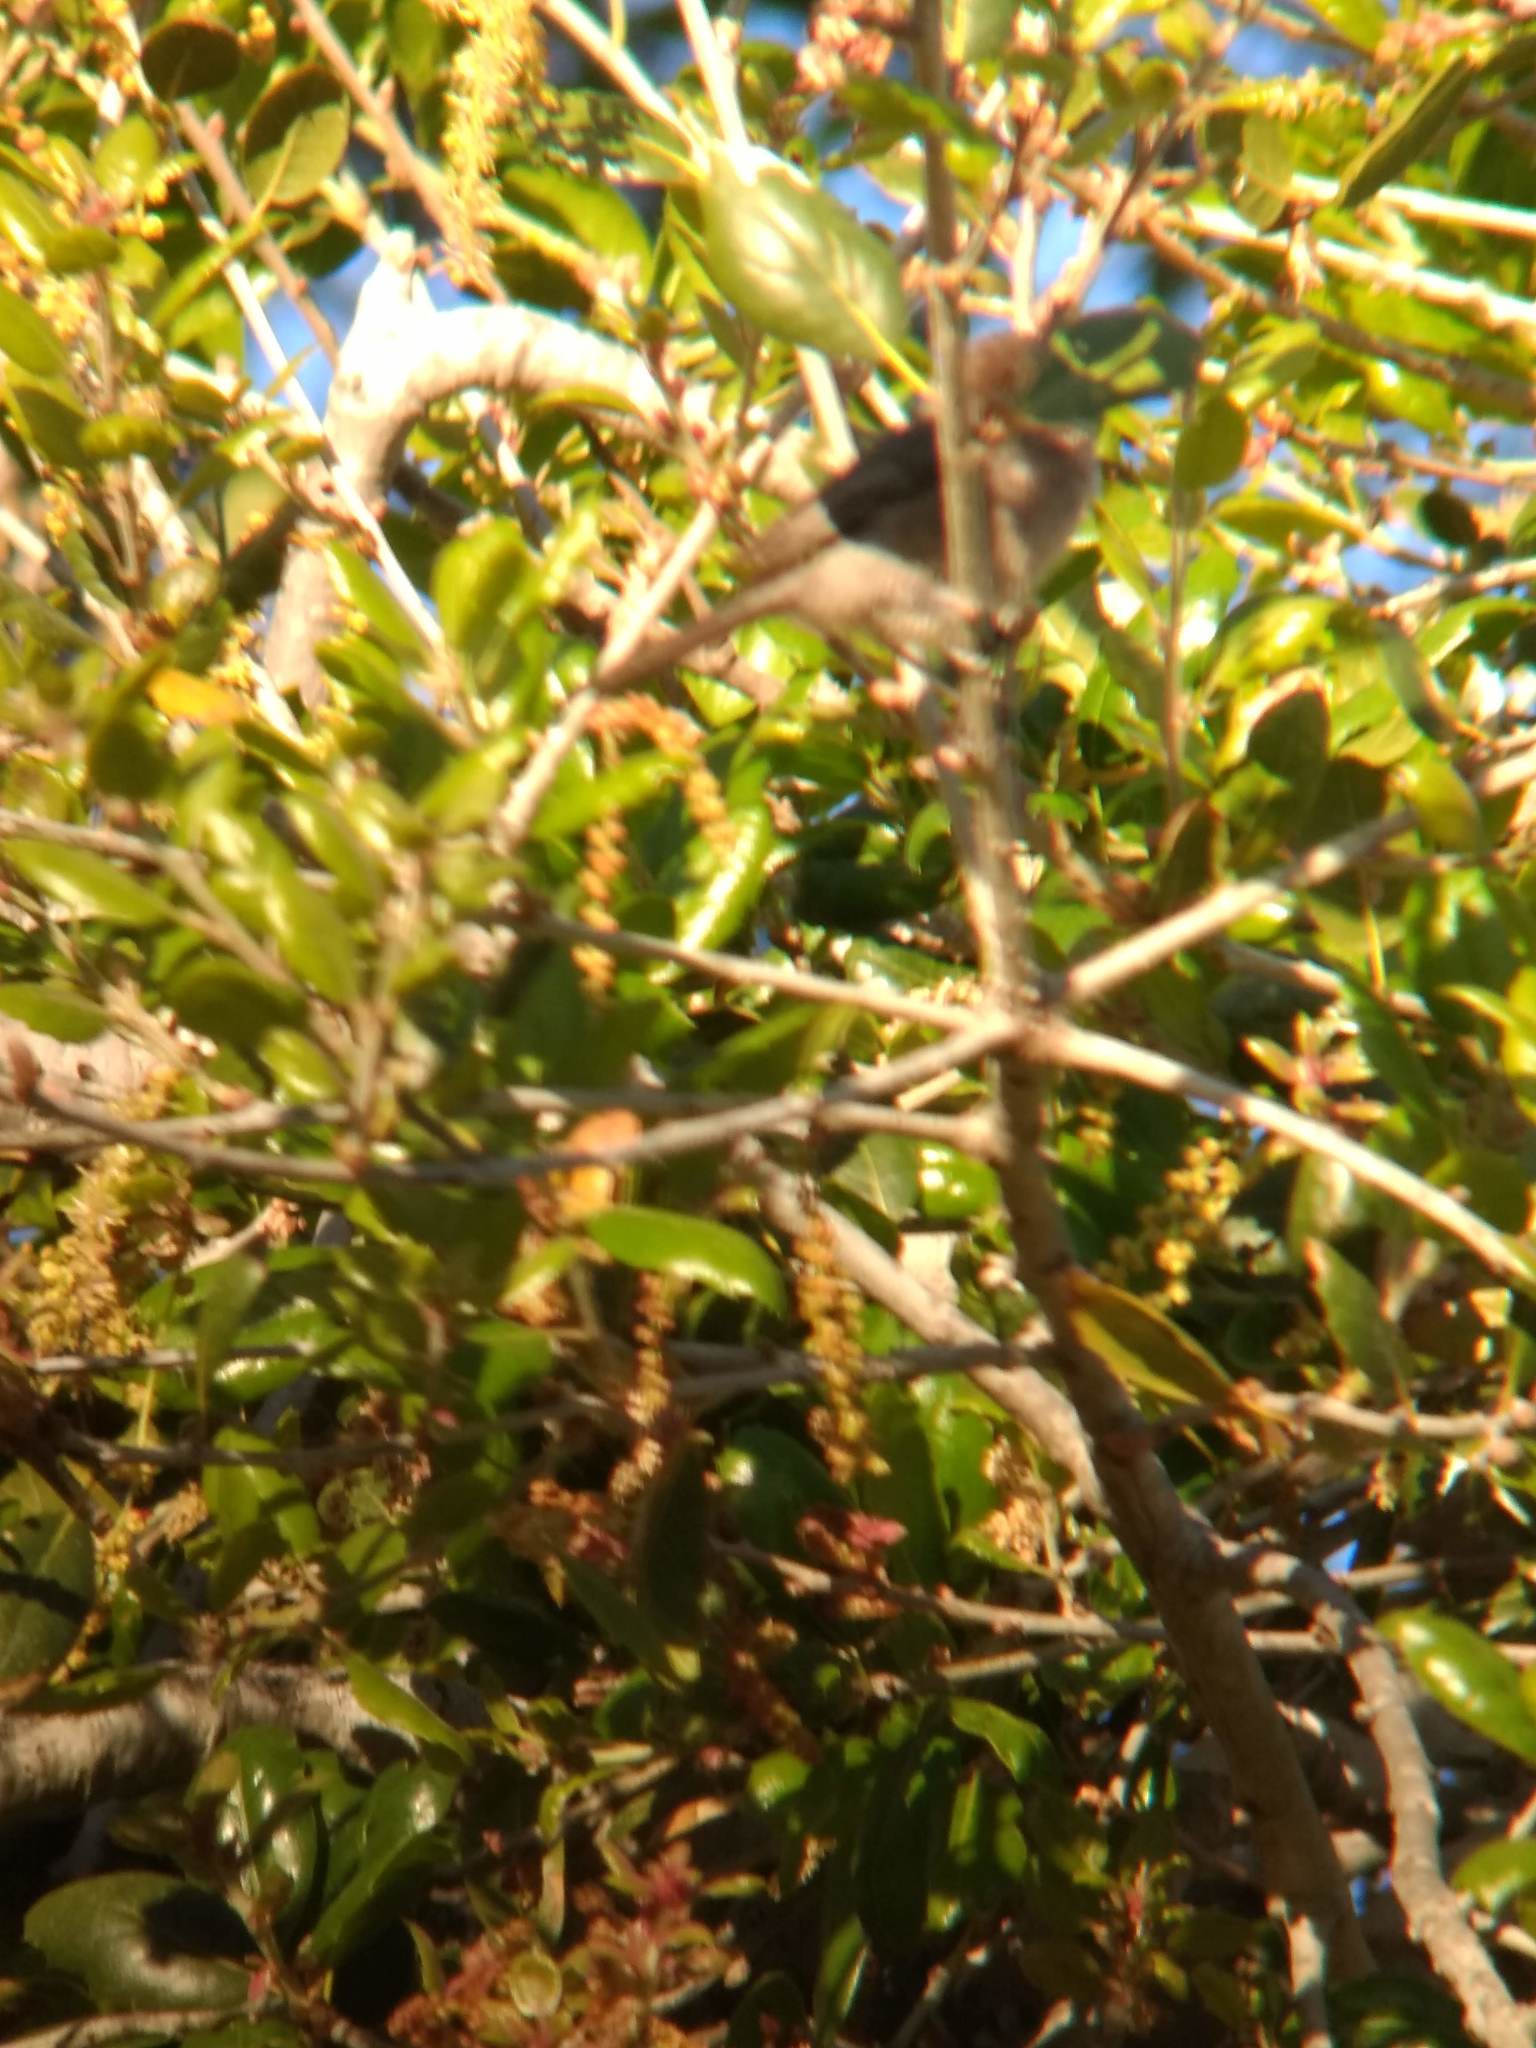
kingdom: Animalia
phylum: Chordata
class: Aves
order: Passeriformes
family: Aegithalidae
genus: Psaltriparus
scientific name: Psaltriparus minimus
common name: American bushtit
